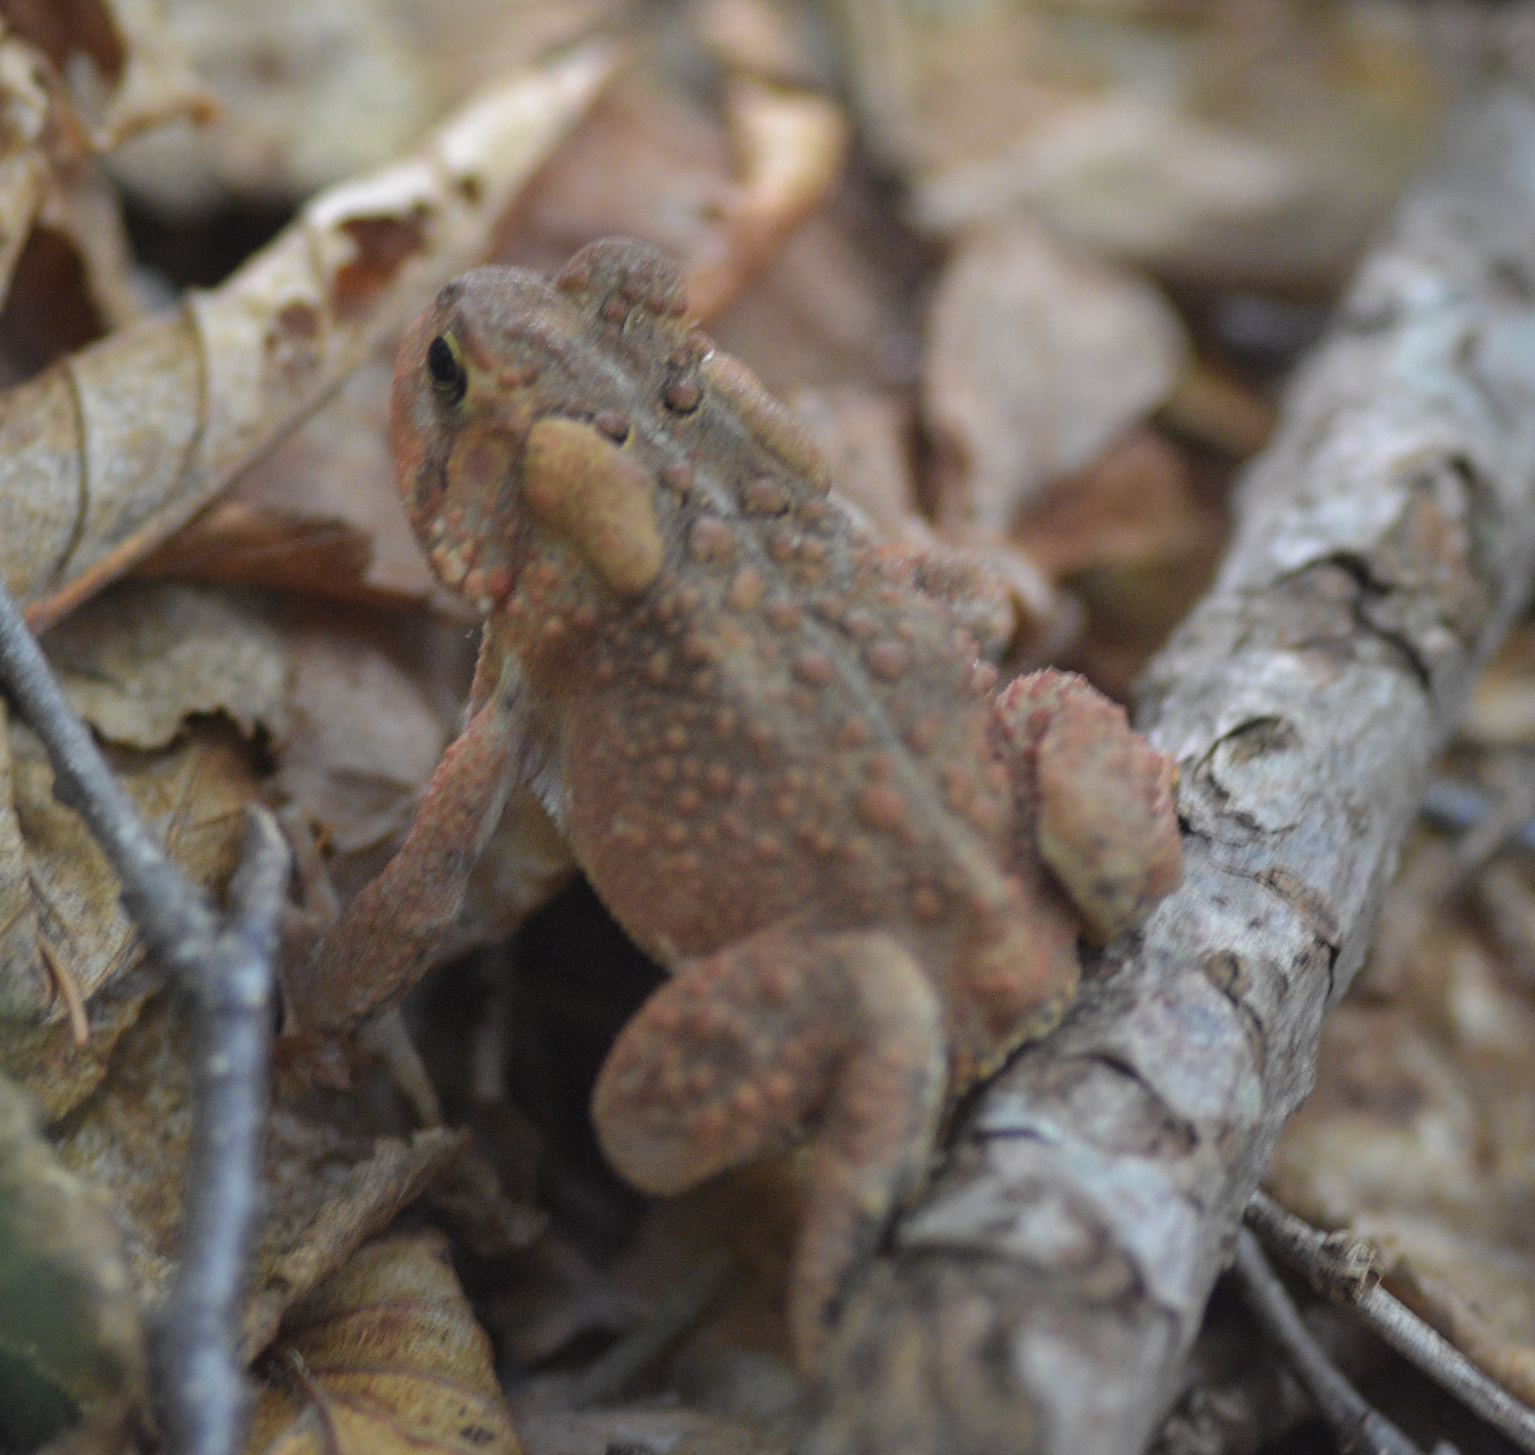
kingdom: Animalia
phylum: Chordata
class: Amphibia
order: Anura
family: Bufonidae
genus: Anaxyrus
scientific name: Anaxyrus americanus
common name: American toad
